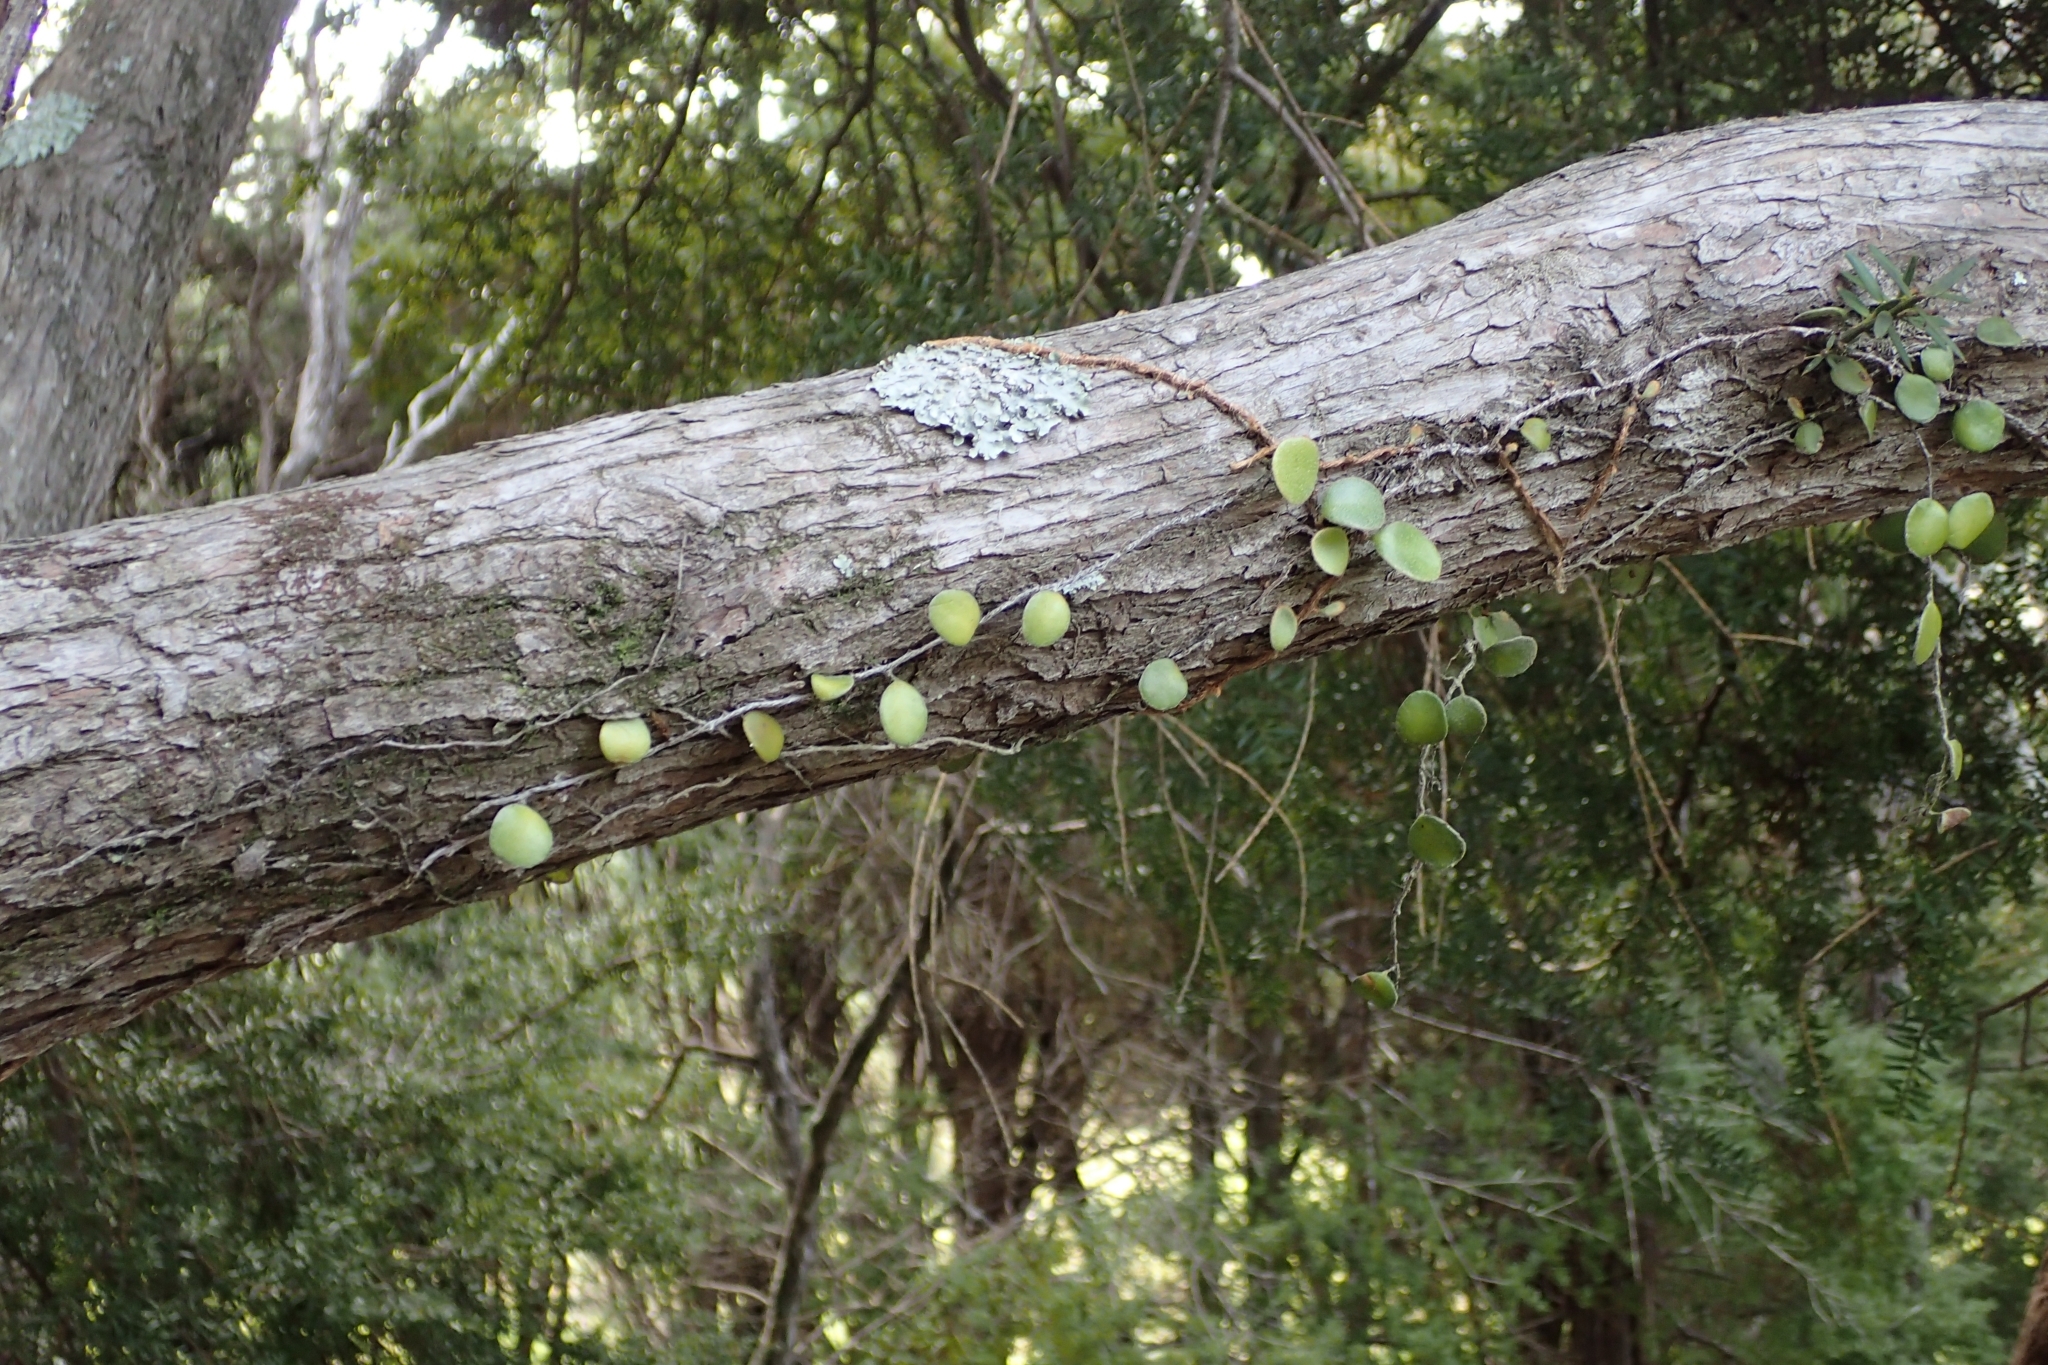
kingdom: Plantae
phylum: Tracheophyta
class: Polypodiopsida
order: Polypodiales
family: Polypodiaceae
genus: Pyrrosia
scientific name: Pyrrosia eleagnifolia
